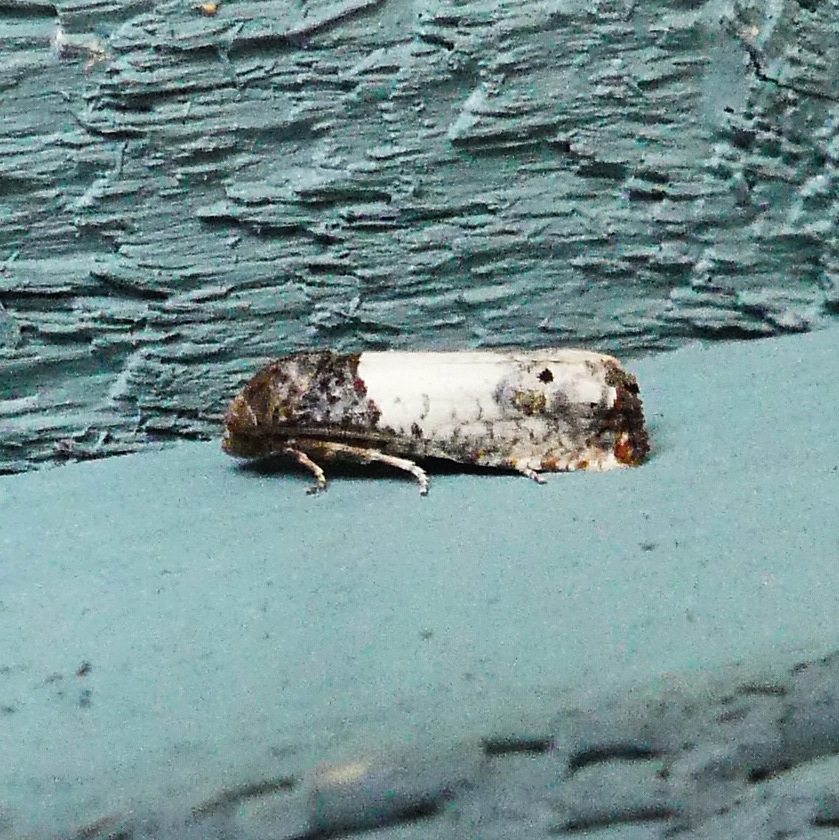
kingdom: Animalia
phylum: Arthropoda
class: Insecta
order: Lepidoptera
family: Tortricidae
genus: Epiblema
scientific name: Epiblema scudderiana
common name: Goldenrod gall moth
